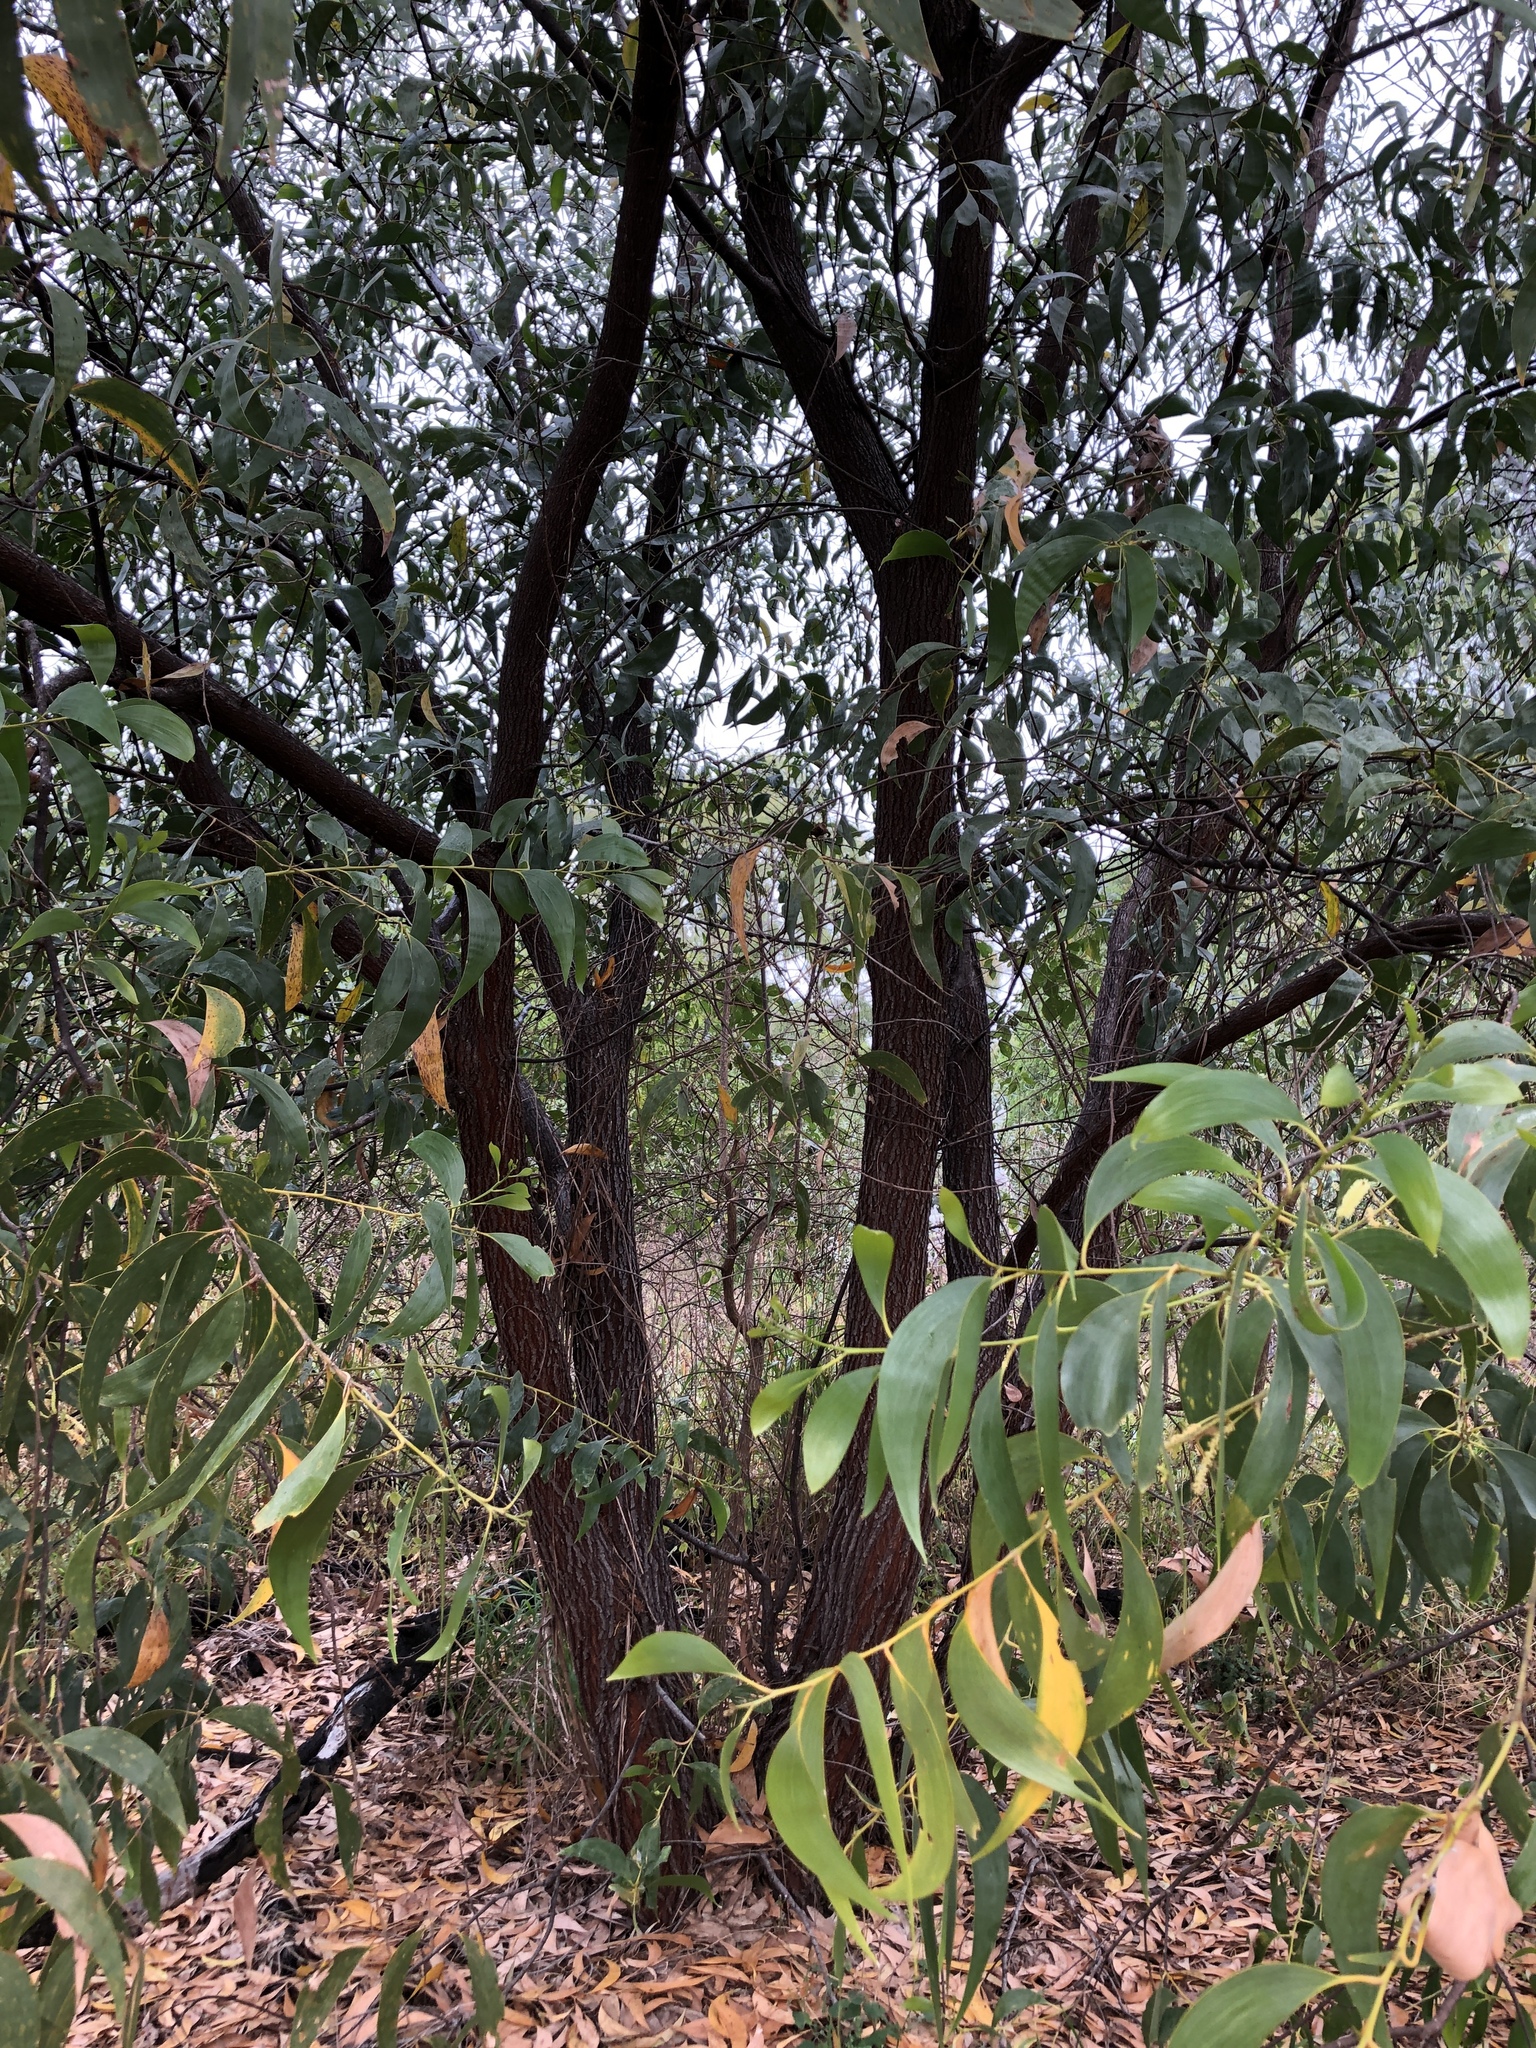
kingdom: Plantae
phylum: Tracheophyta
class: Magnoliopsida
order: Fabales
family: Fabaceae
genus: Acacia
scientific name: Acacia crassicarpa
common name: Northern wattle
